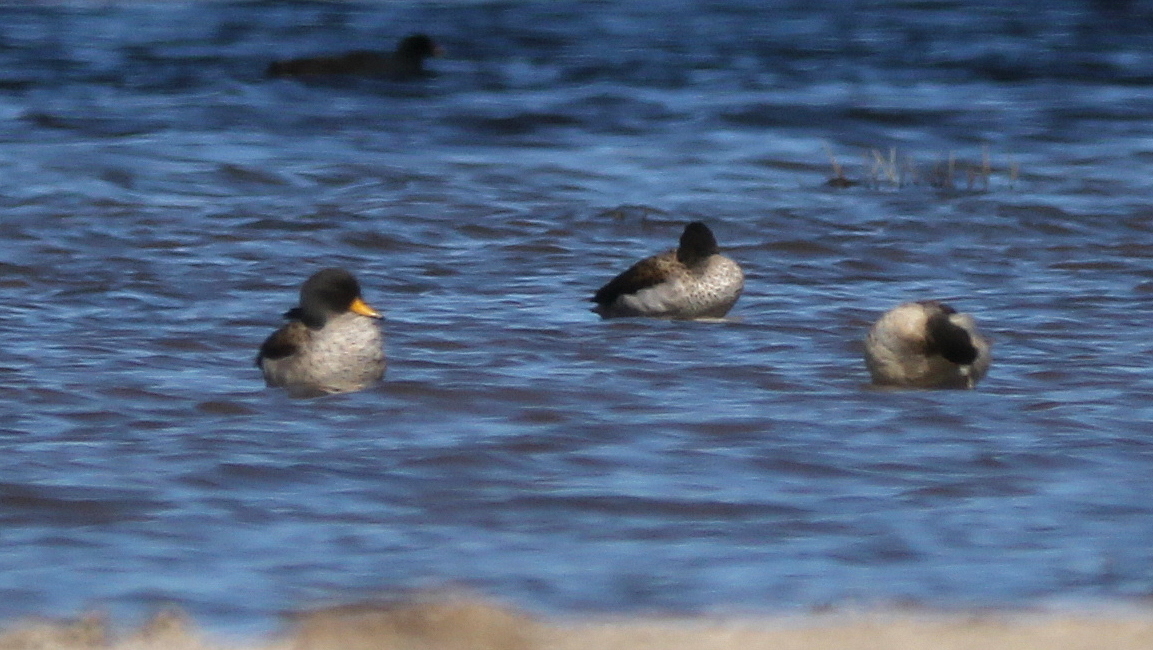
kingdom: Animalia
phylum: Chordata
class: Aves
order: Anseriformes
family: Anatidae
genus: Anas
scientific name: Anas flavirostris
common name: Yellow-billed teal
